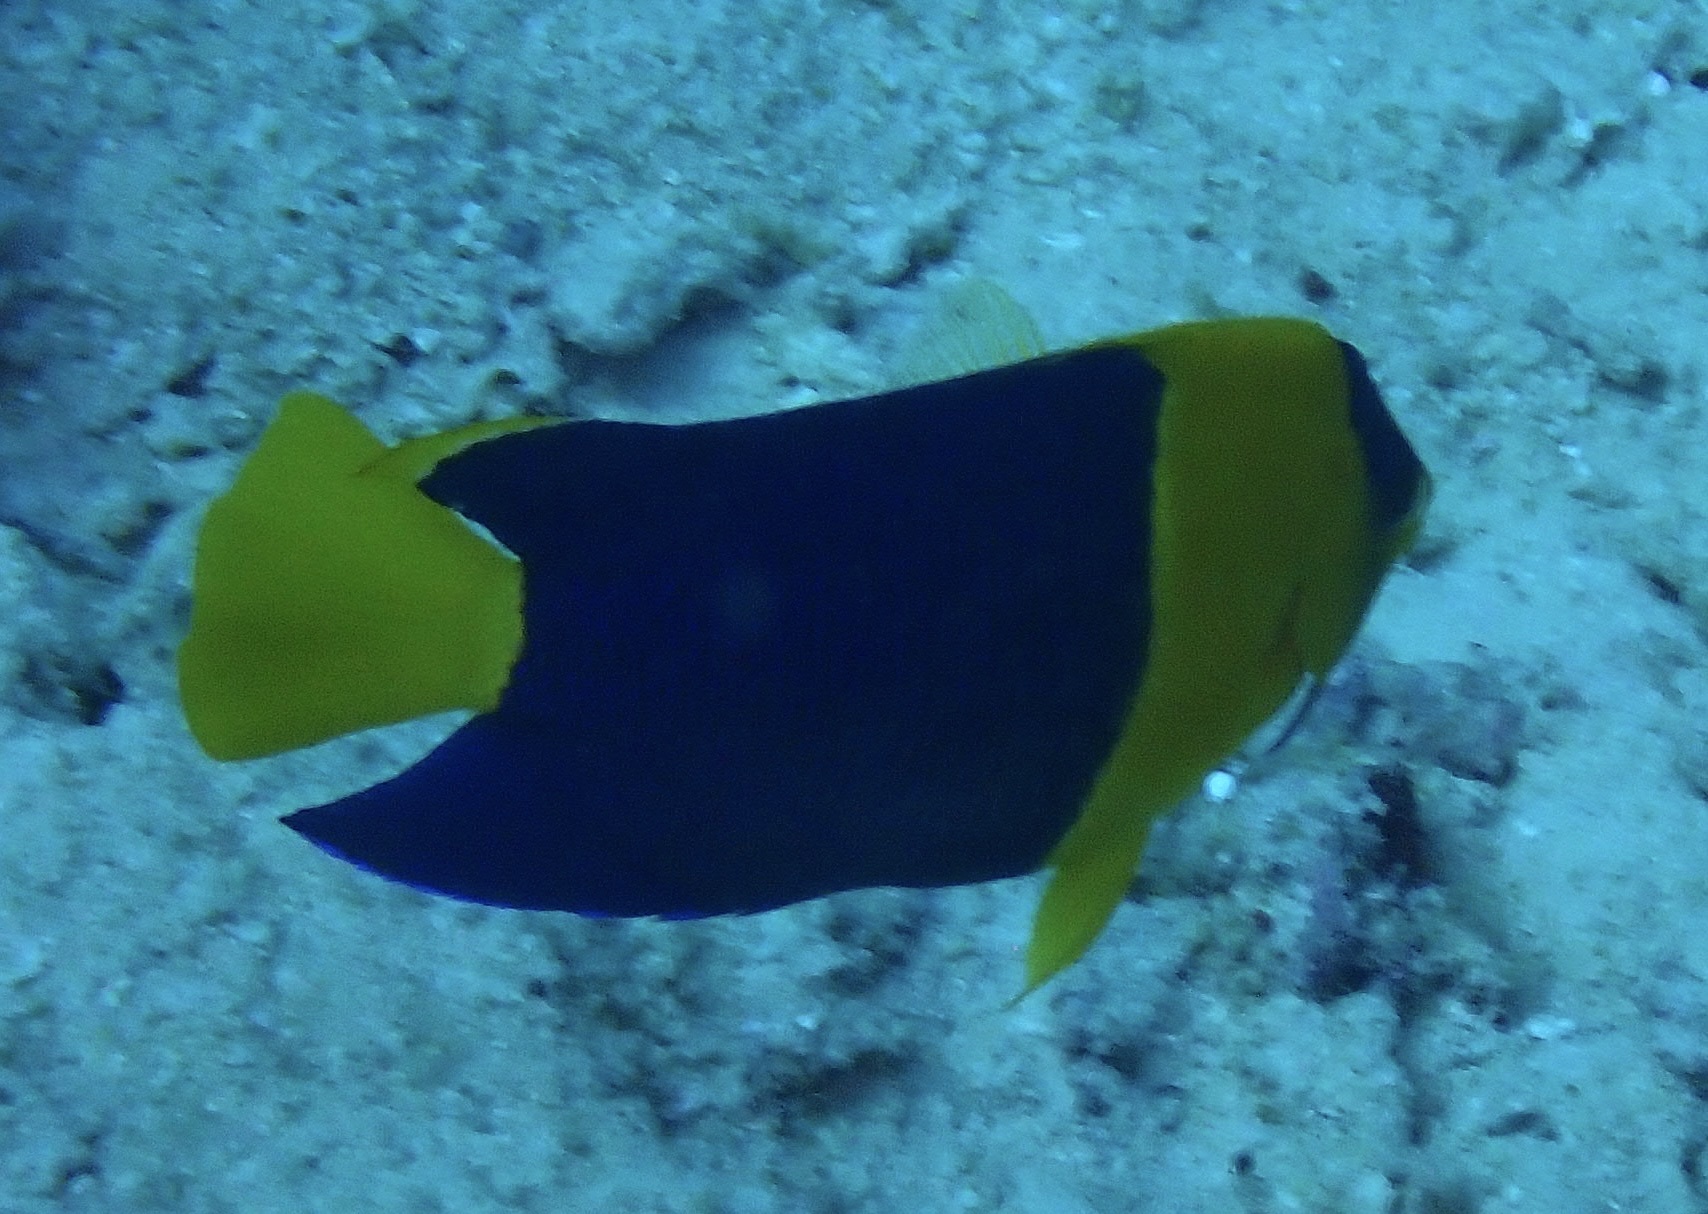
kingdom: Animalia
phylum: Chordata
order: Perciformes
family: Pomacanthidae
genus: Centropyge
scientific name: Centropyge bicolor
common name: Bicolor angelfish
